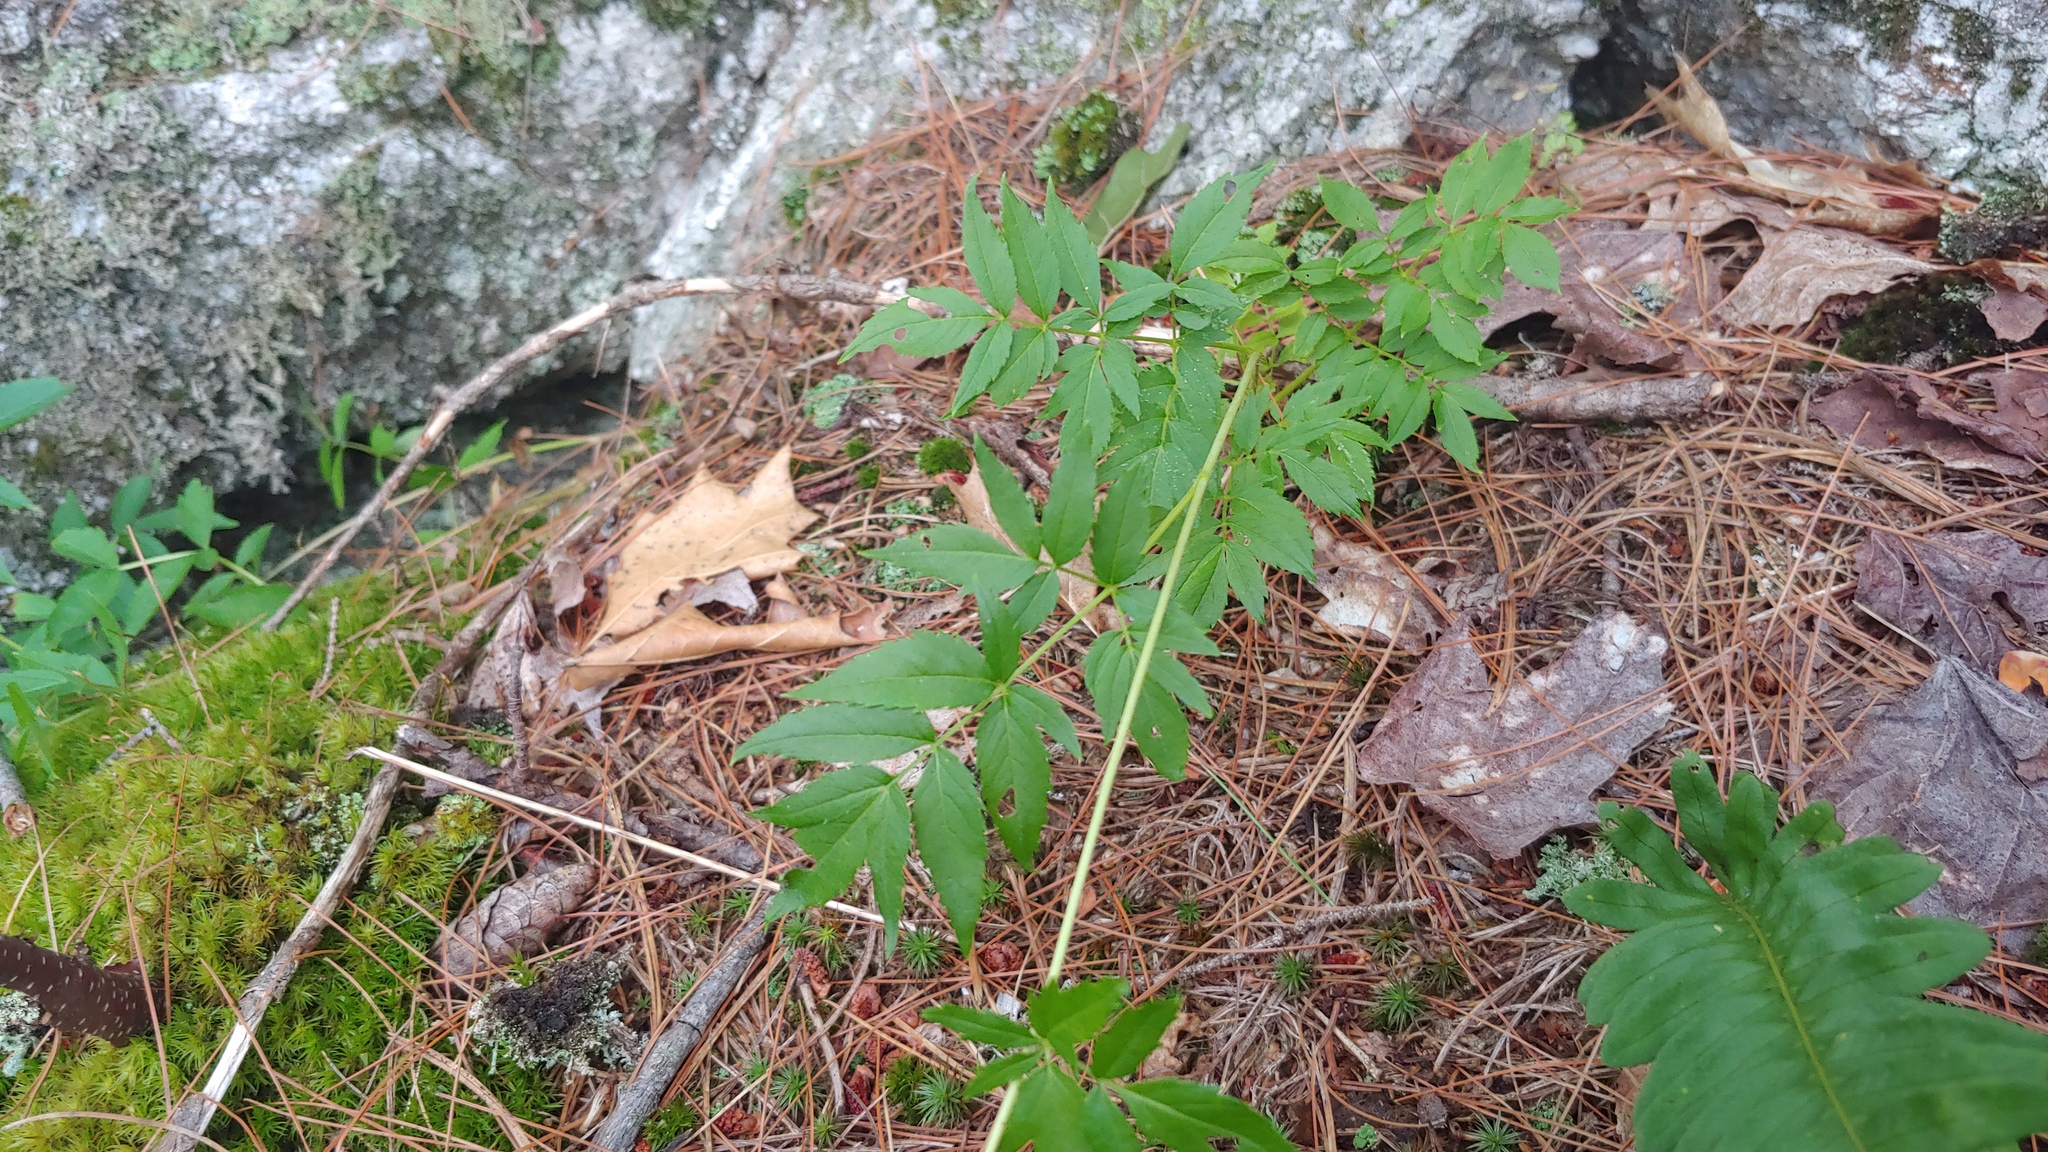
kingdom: Plantae
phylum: Tracheophyta
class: Magnoliopsida
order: Apiales
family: Araliaceae
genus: Aralia
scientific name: Aralia hispida
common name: Bristly sarsaparilla
